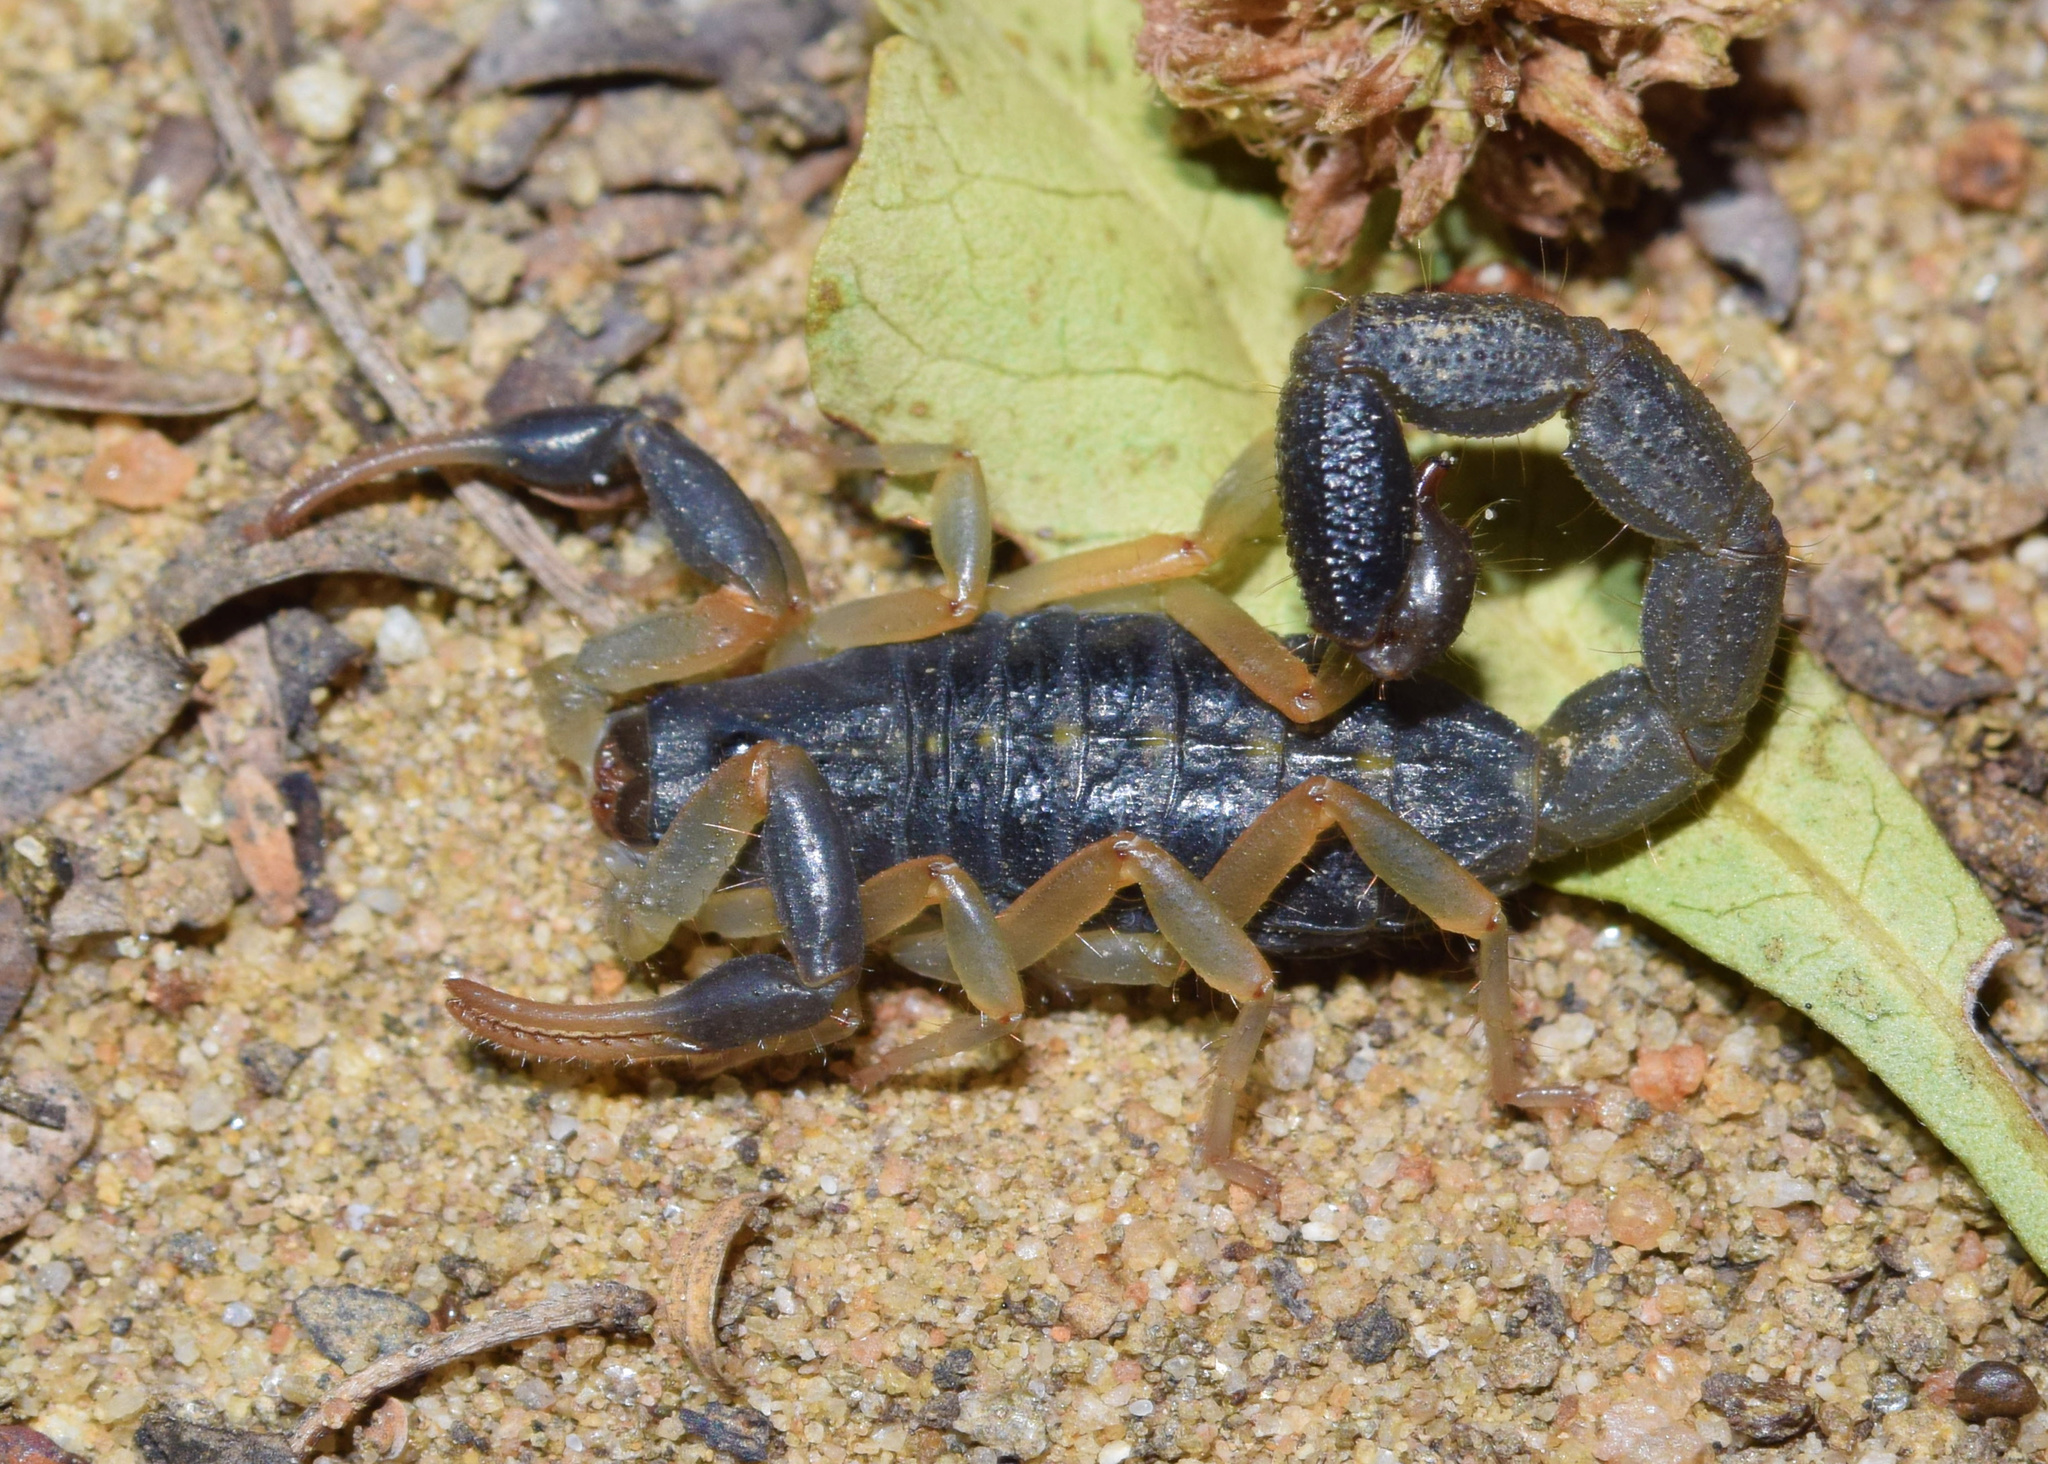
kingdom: Animalia
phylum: Arthropoda
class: Arachnida
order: Scorpiones
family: Buthidae
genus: Uroplectes
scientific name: Uroplectes triangulifer
